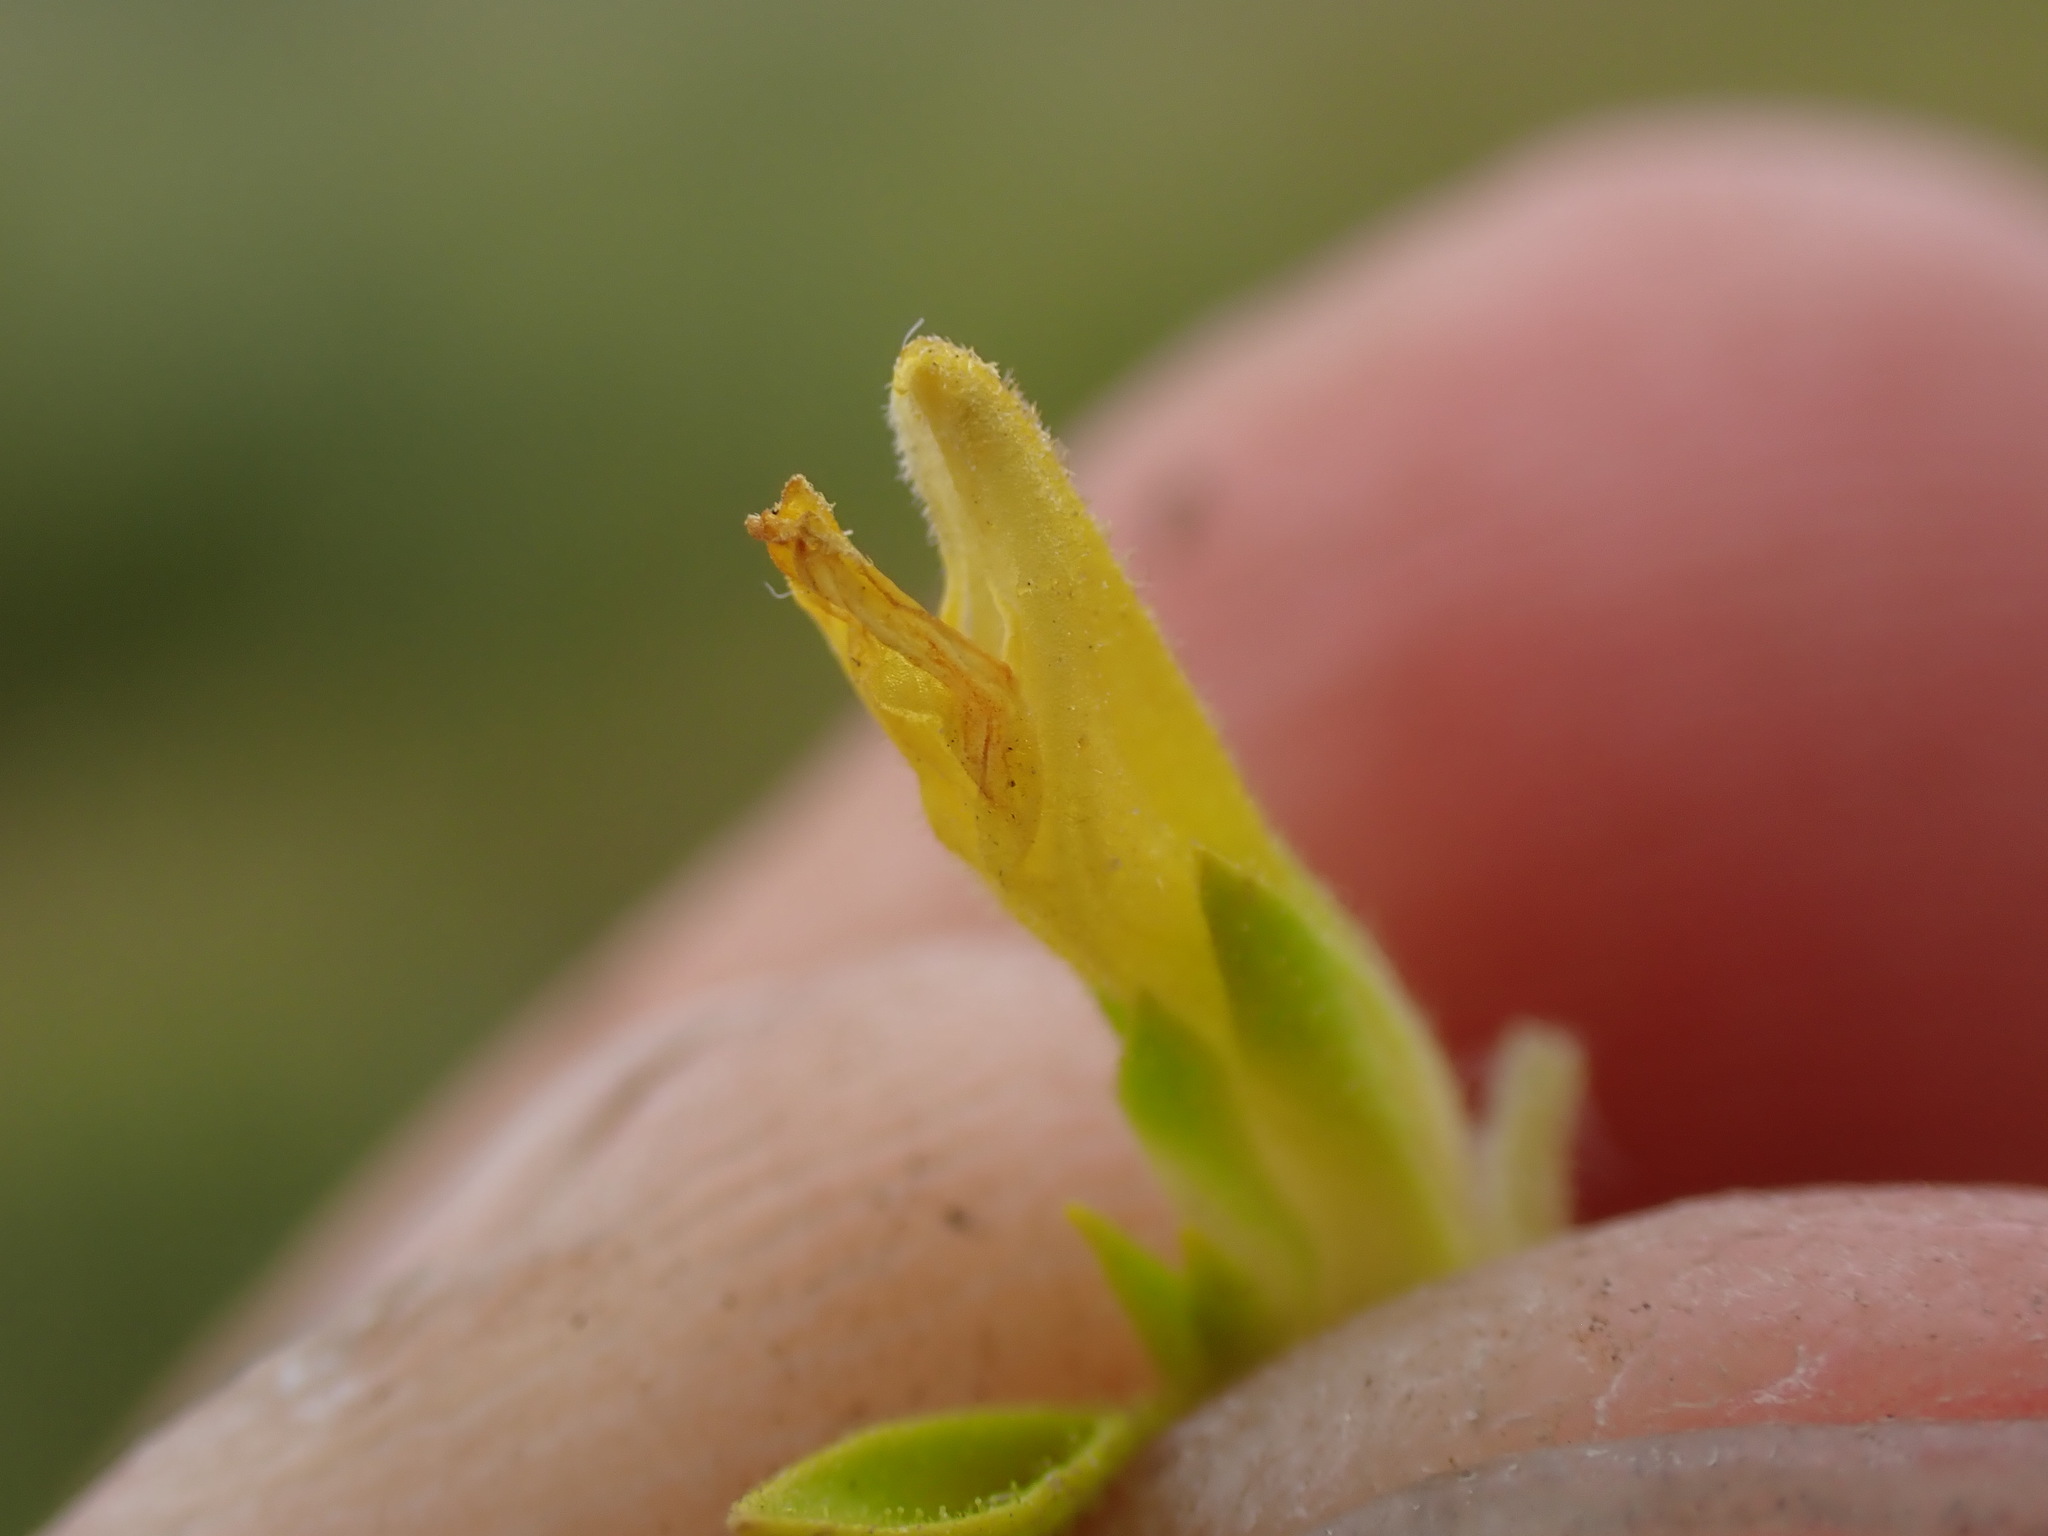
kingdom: Plantae
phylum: Tracheophyta
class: Magnoliopsida
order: Lamiales
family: Orobanchaceae
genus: Orthocarpus
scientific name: Orthocarpus luteus
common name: Golden-tongue owl's-clover
